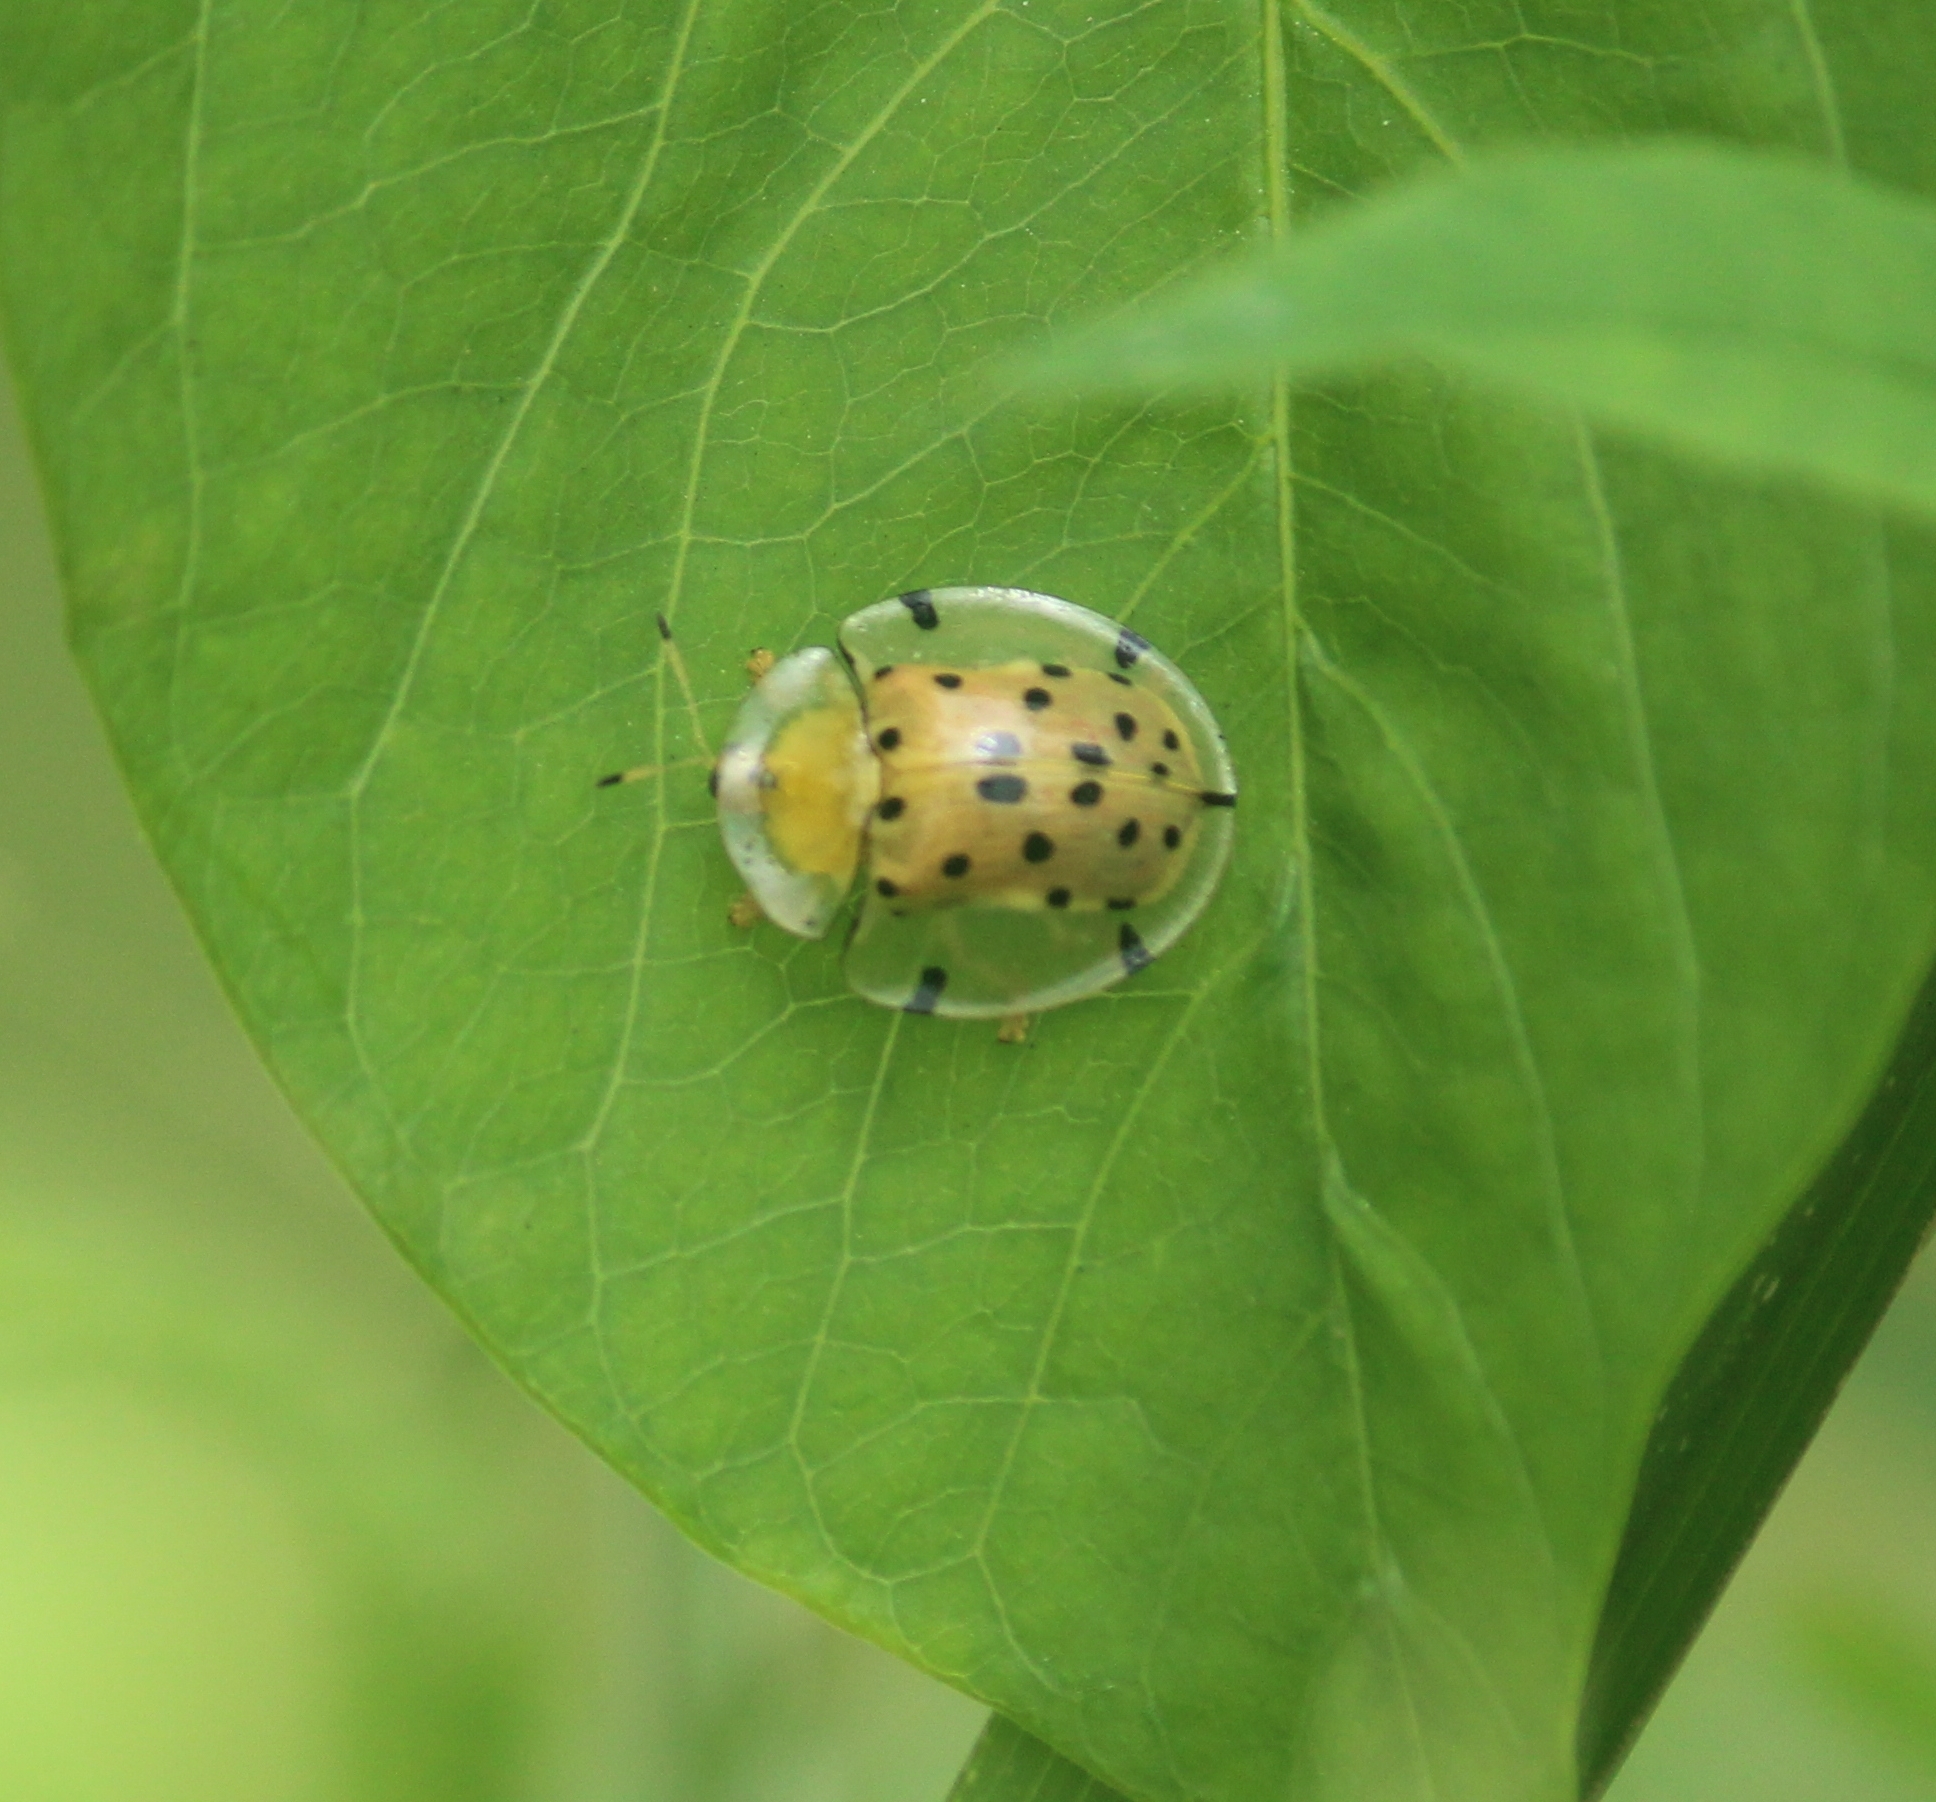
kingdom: Animalia
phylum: Arthropoda
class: Insecta
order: Coleoptera
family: Chrysomelidae
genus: Aspidimorpha
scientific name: Aspidimorpha miliaris
